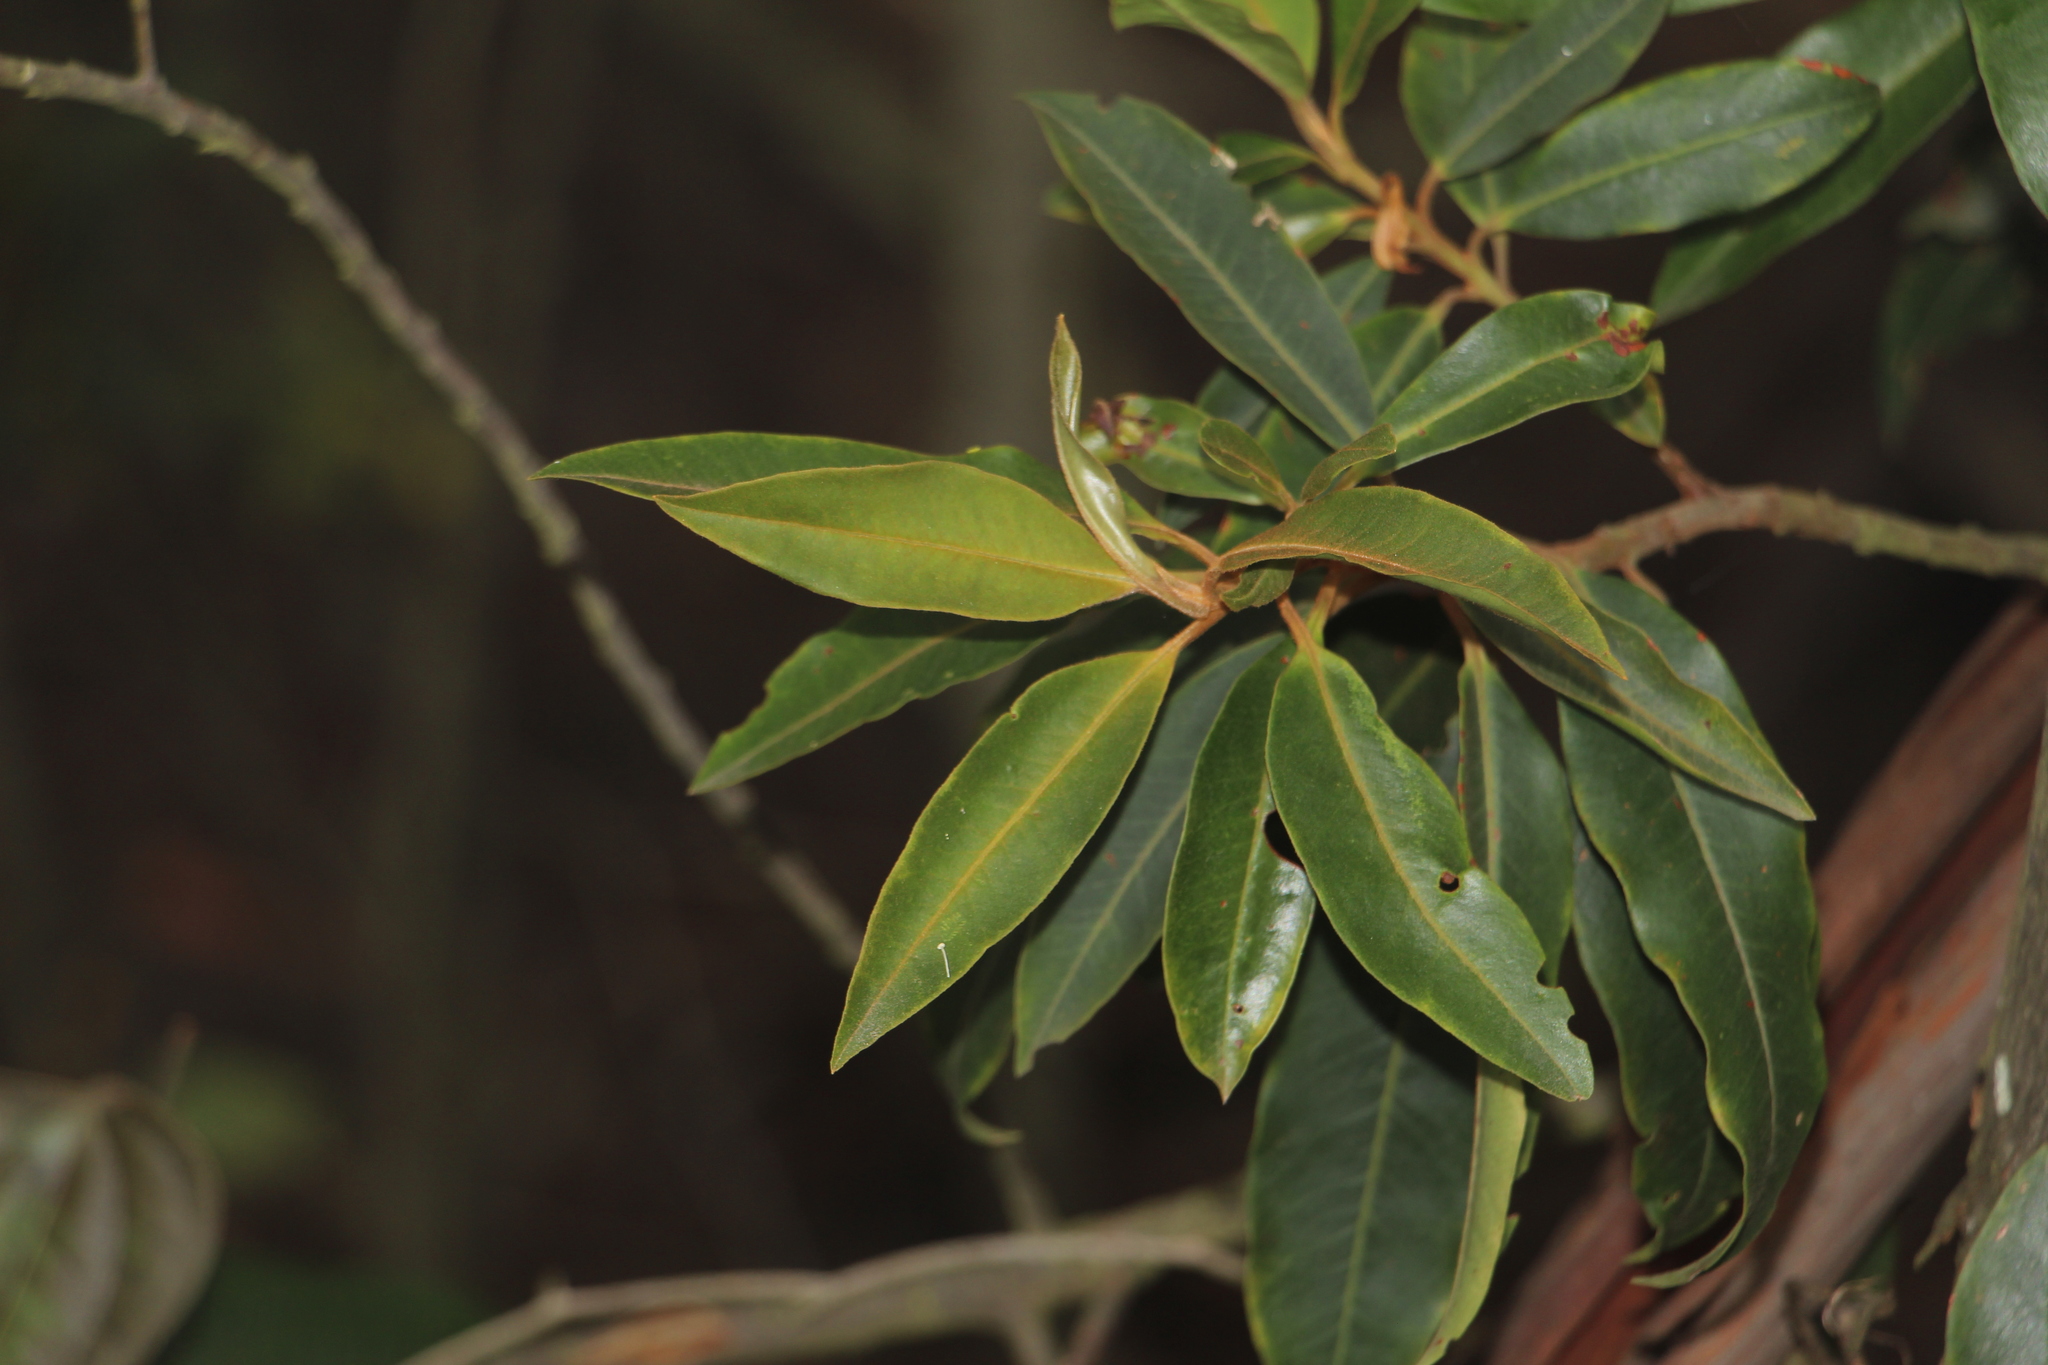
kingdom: Plantae
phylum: Tracheophyta
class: Magnoliopsida
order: Ericales
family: Primulaceae
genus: Myrsine
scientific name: Myrsine coriacea
